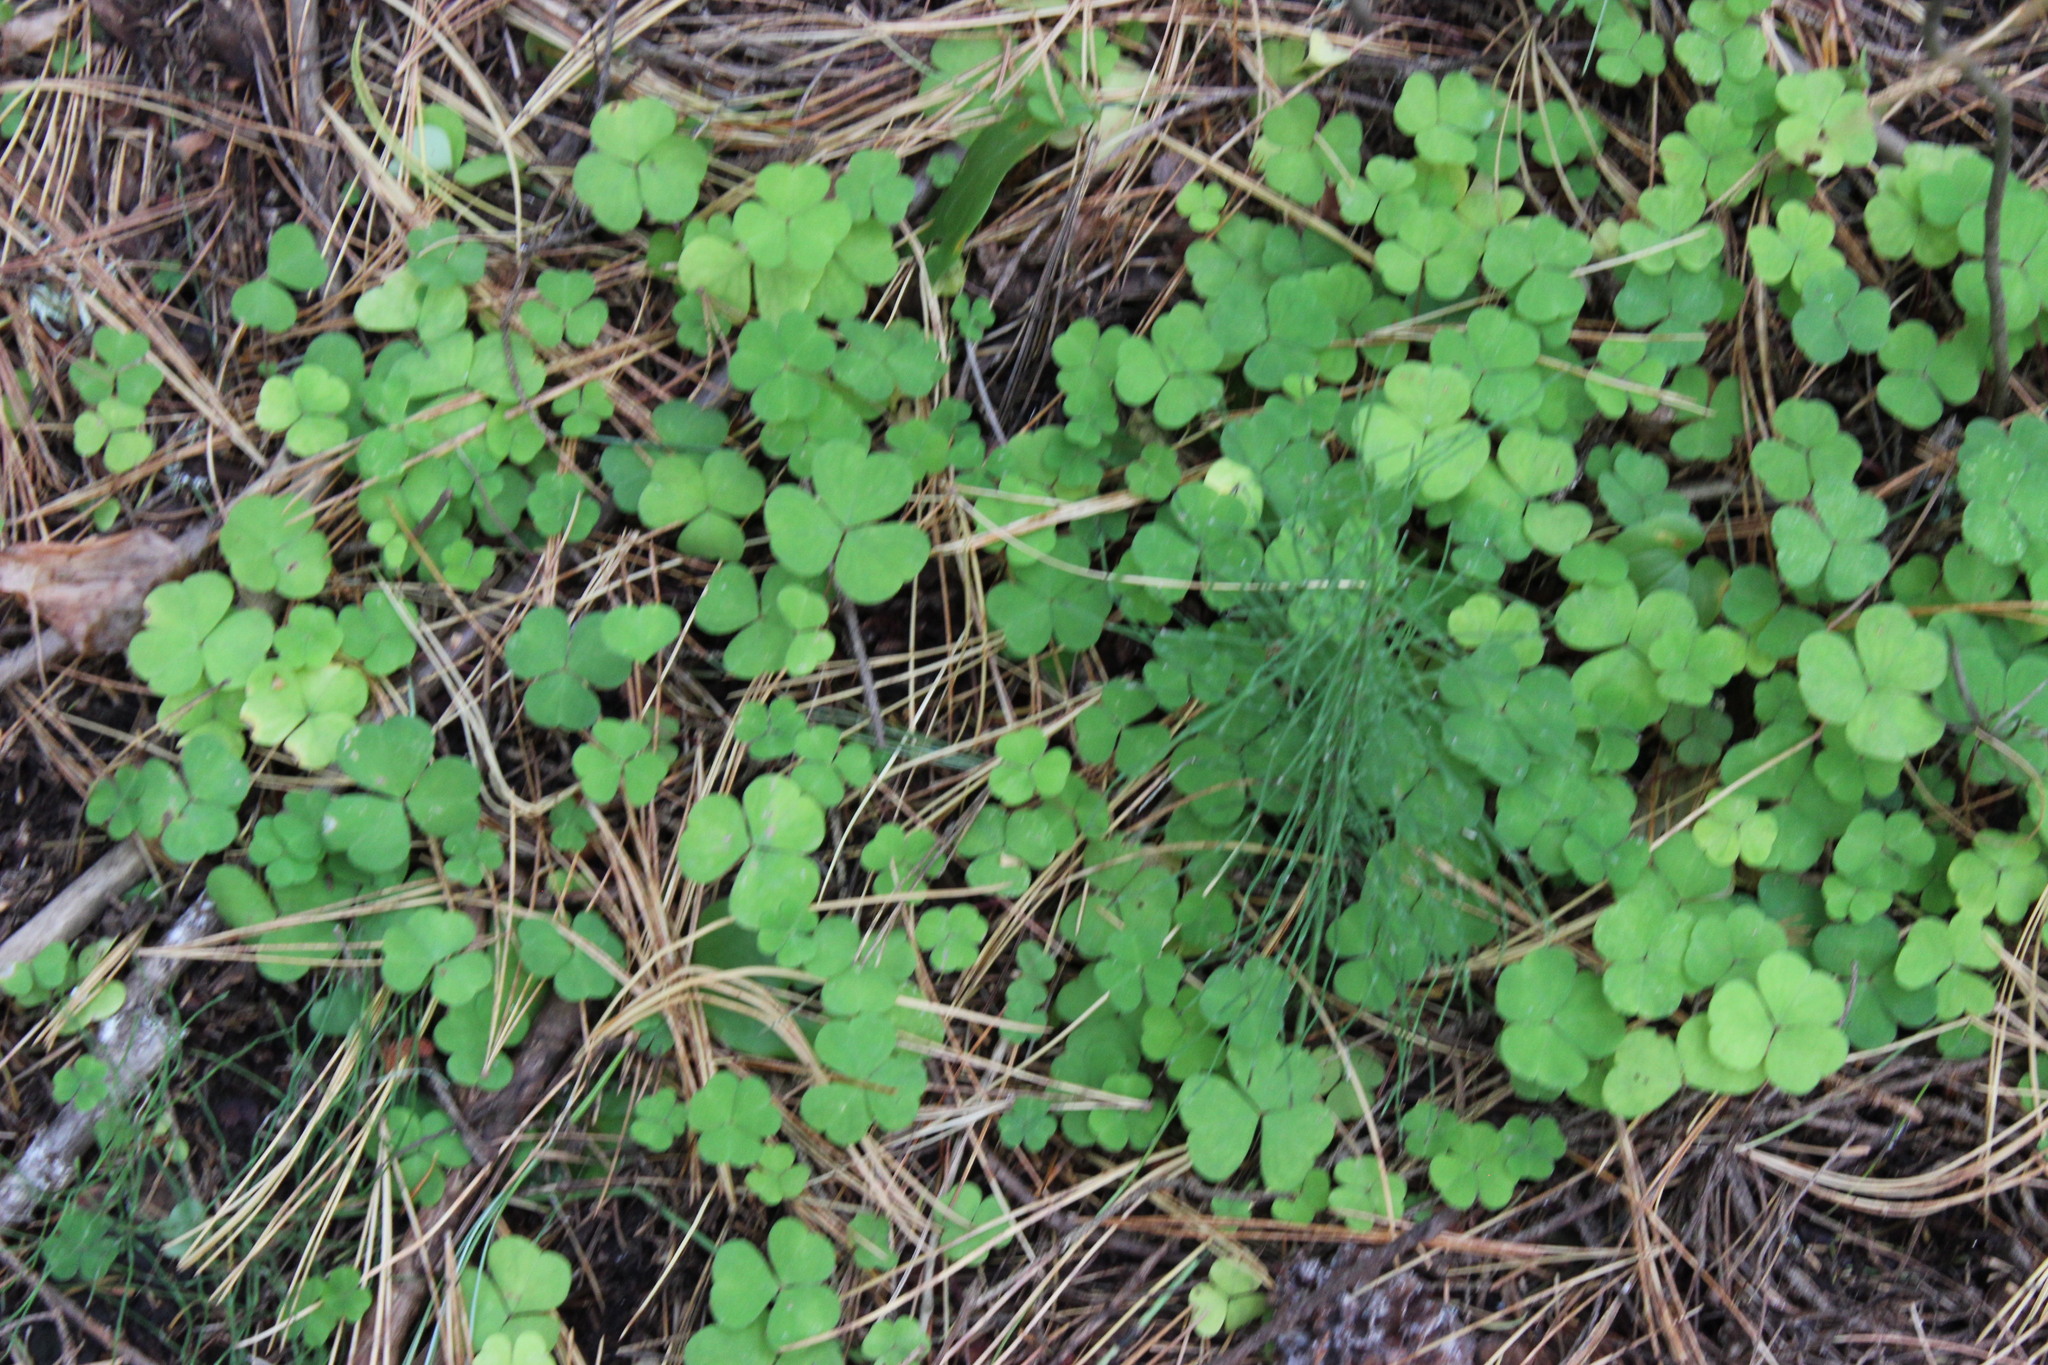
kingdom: Plantae
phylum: Tracheophyta
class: Magnoliopsida
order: Oxalidales
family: Oxalidaceae
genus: Oxalis
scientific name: Oxalis acetosella
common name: Wood-sorrel
